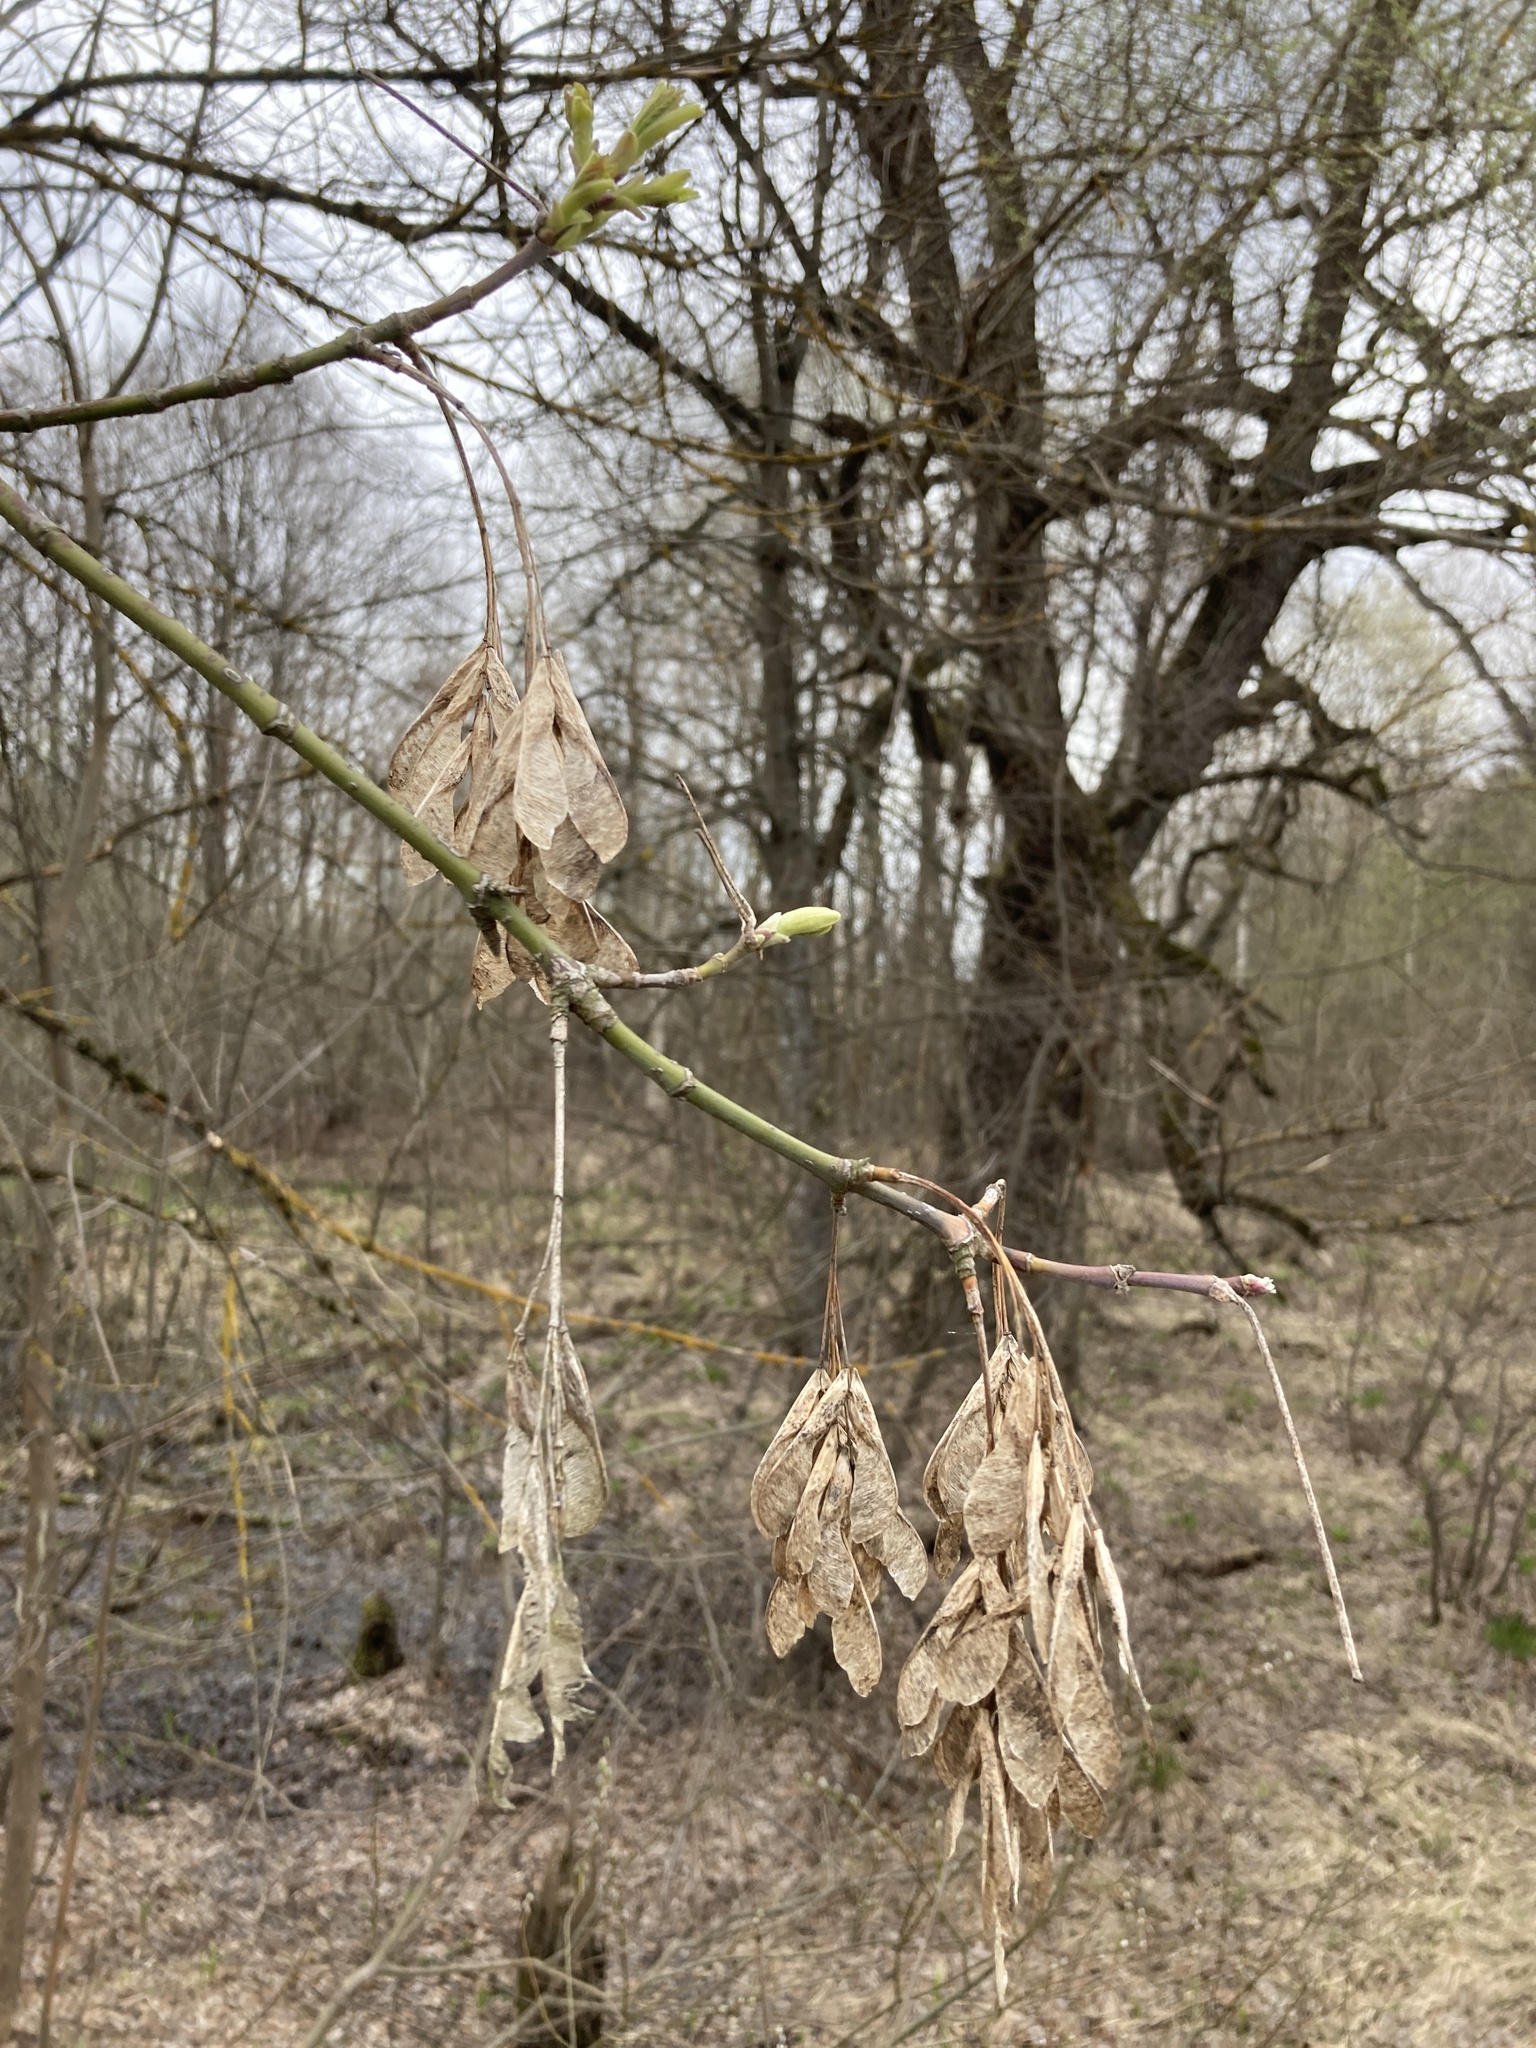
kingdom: Plantae
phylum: Tracheophyta
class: Magnoliopsida
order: Sapindales
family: Sapindaceae
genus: Acer
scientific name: Acer negundo
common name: Ashleaf maple
